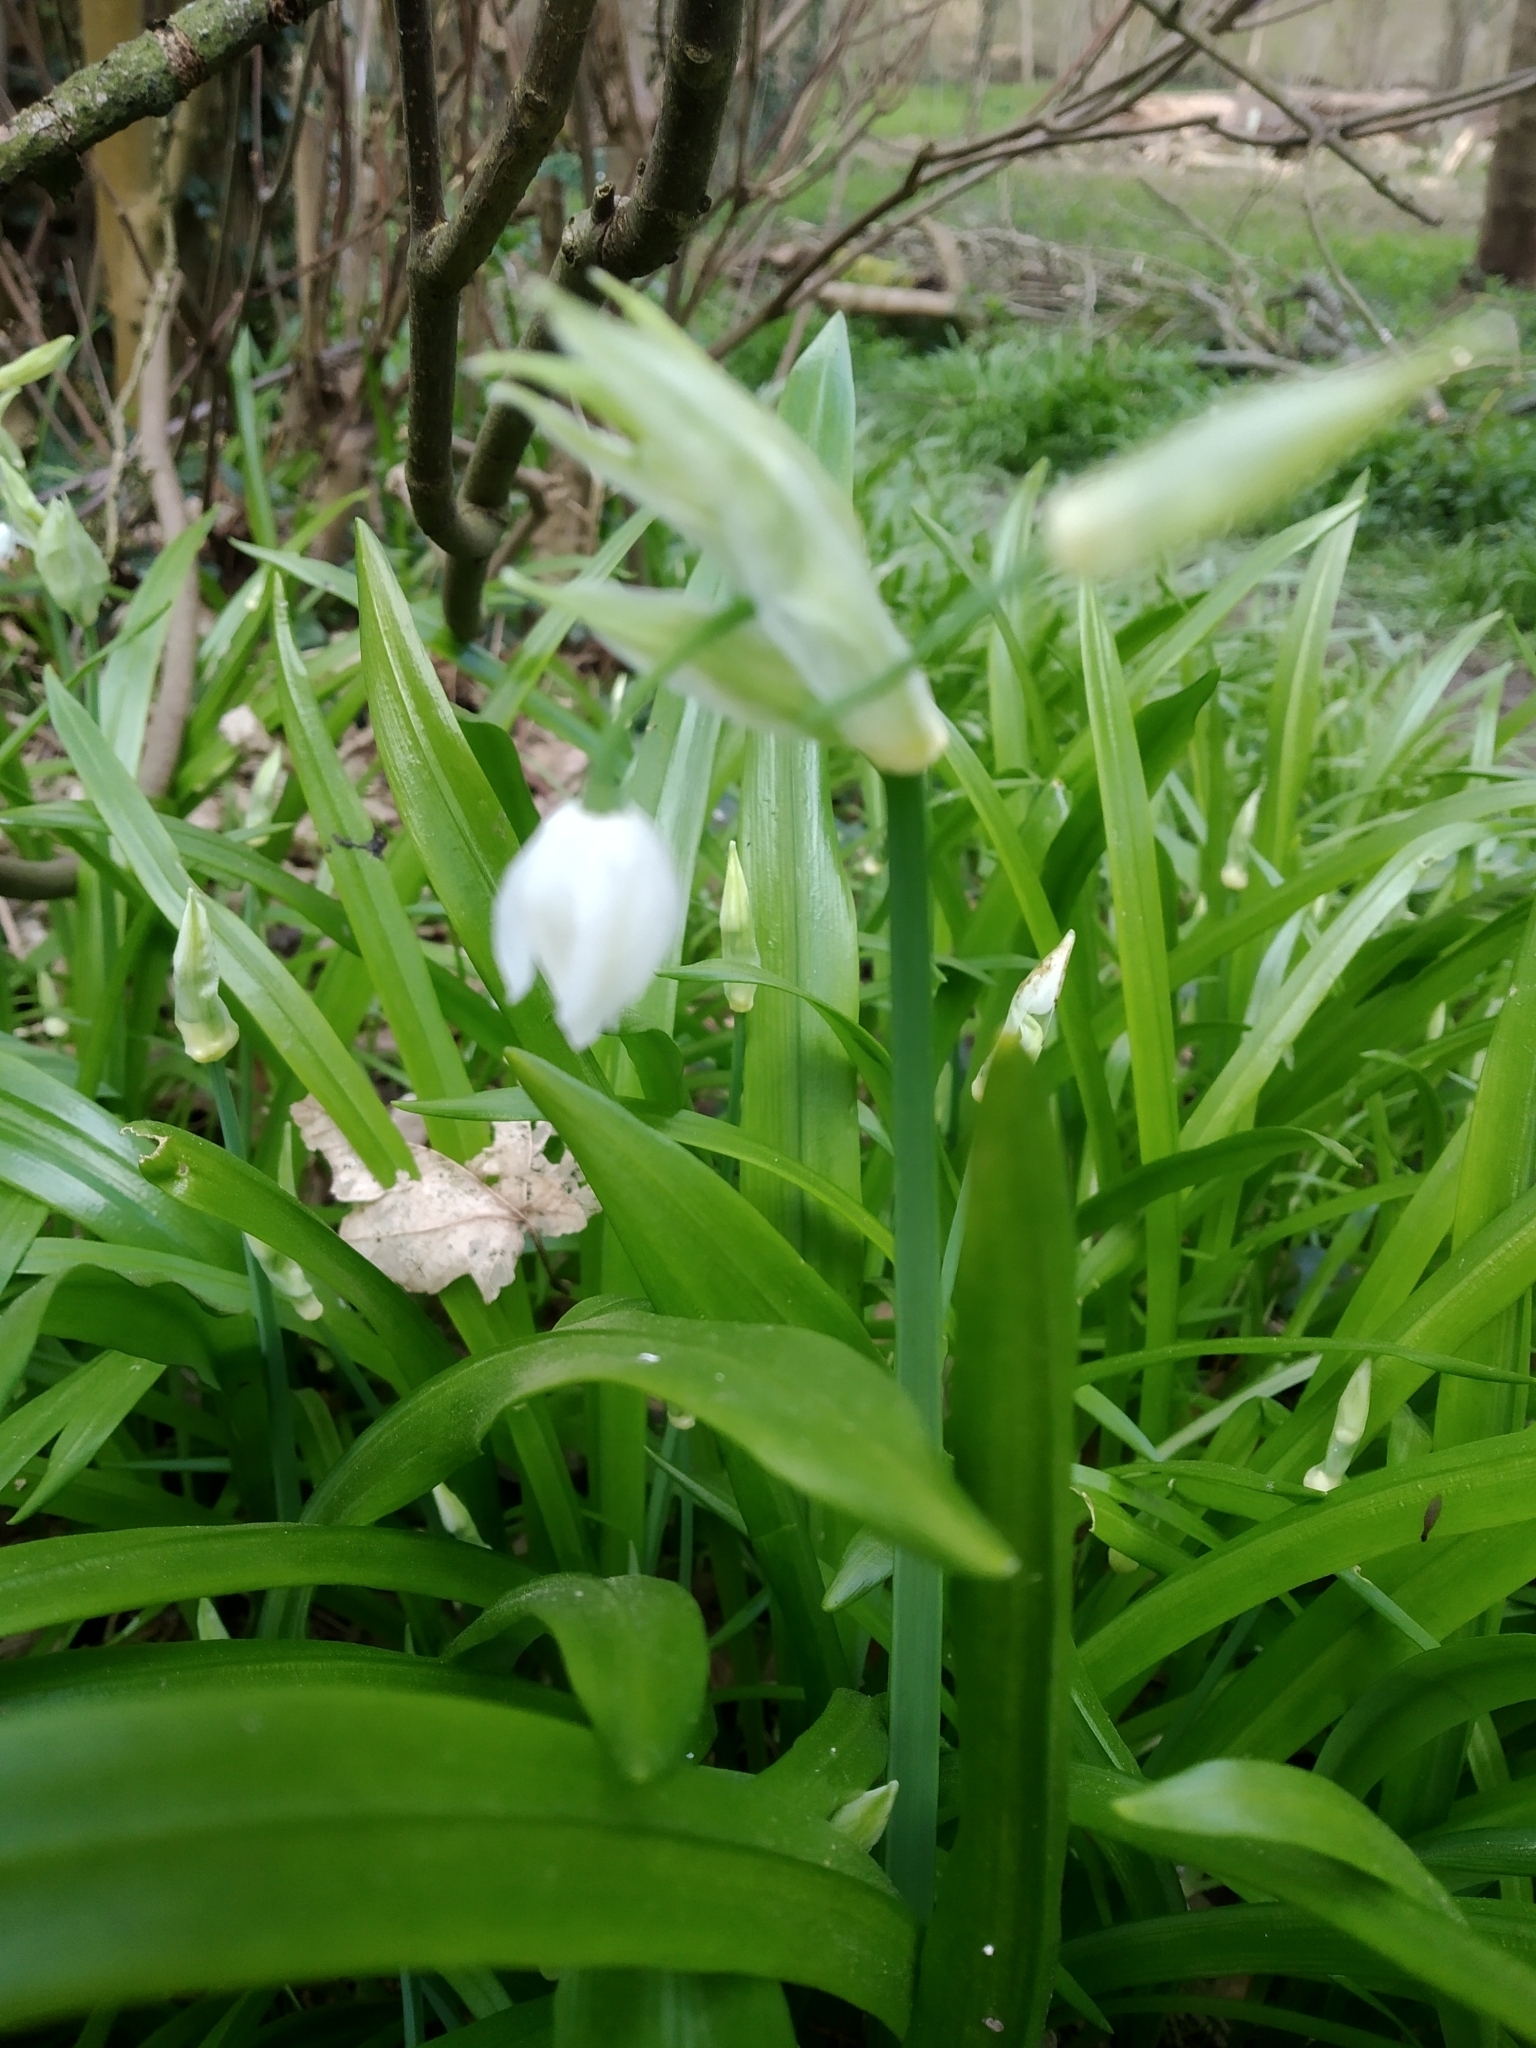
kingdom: Plantae
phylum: Tracheophyta
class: Liliopsida
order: Asparagales
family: Amaryllidaceae
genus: Allium
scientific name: Allium paradoxum
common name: Few-flowered garlic
